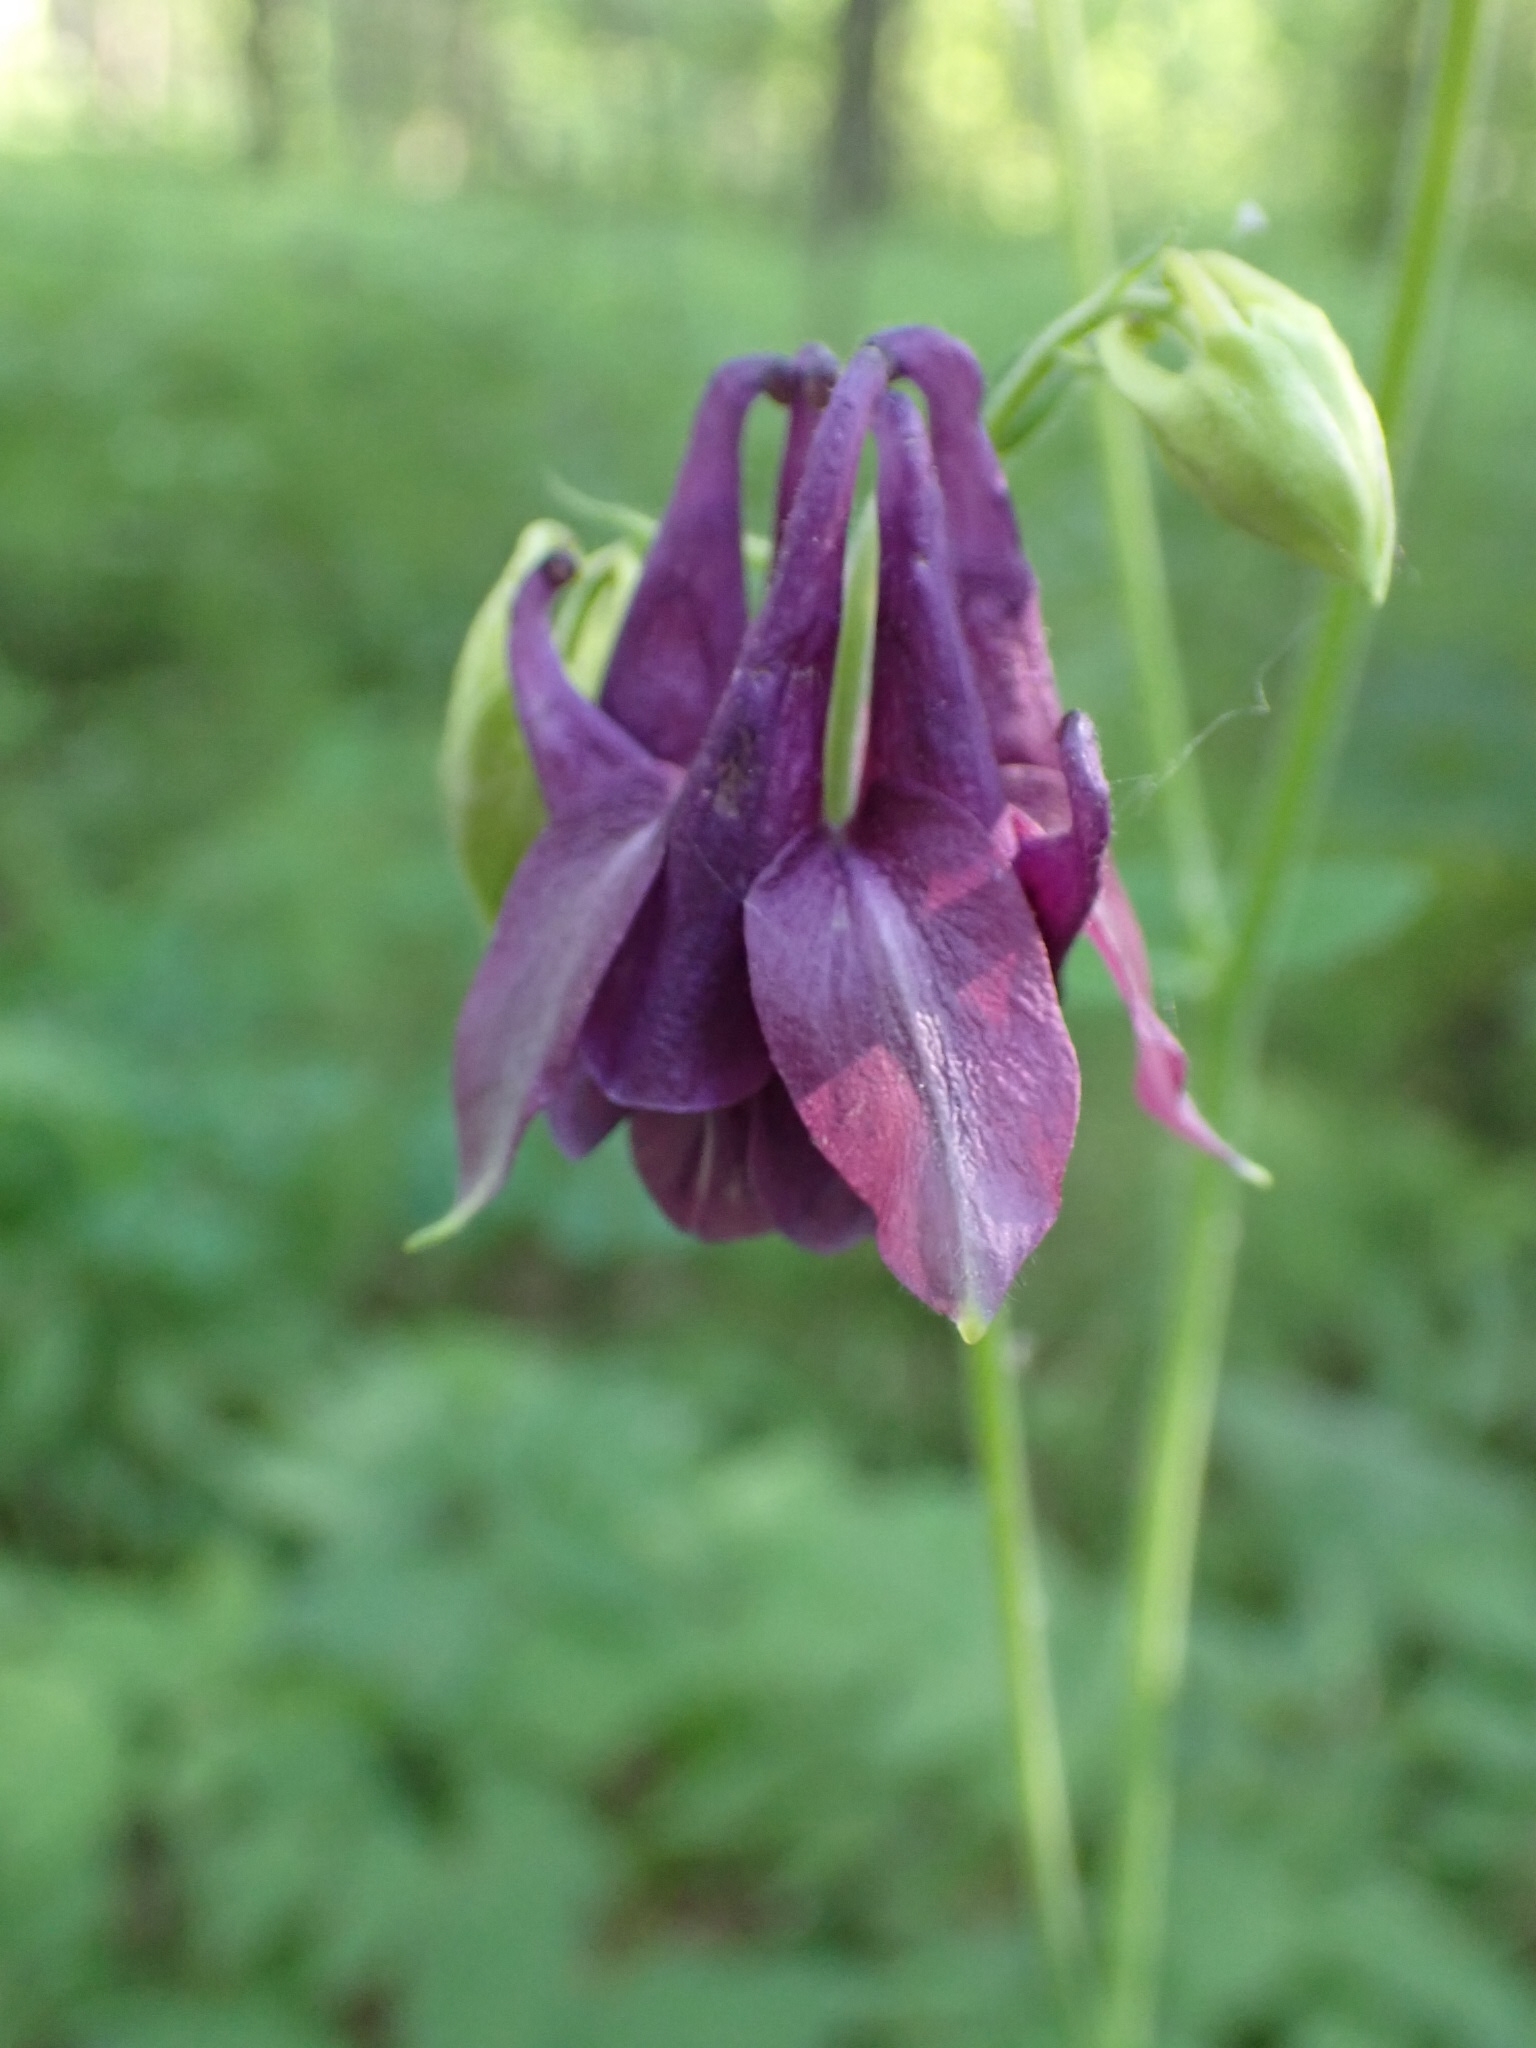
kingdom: Plantae
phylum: Tracheophyta
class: Magnoliopsida
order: Ranunculales
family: Ranunculaceae
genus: Aquilegia
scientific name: Aquilegia vulgaris
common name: Columbine
